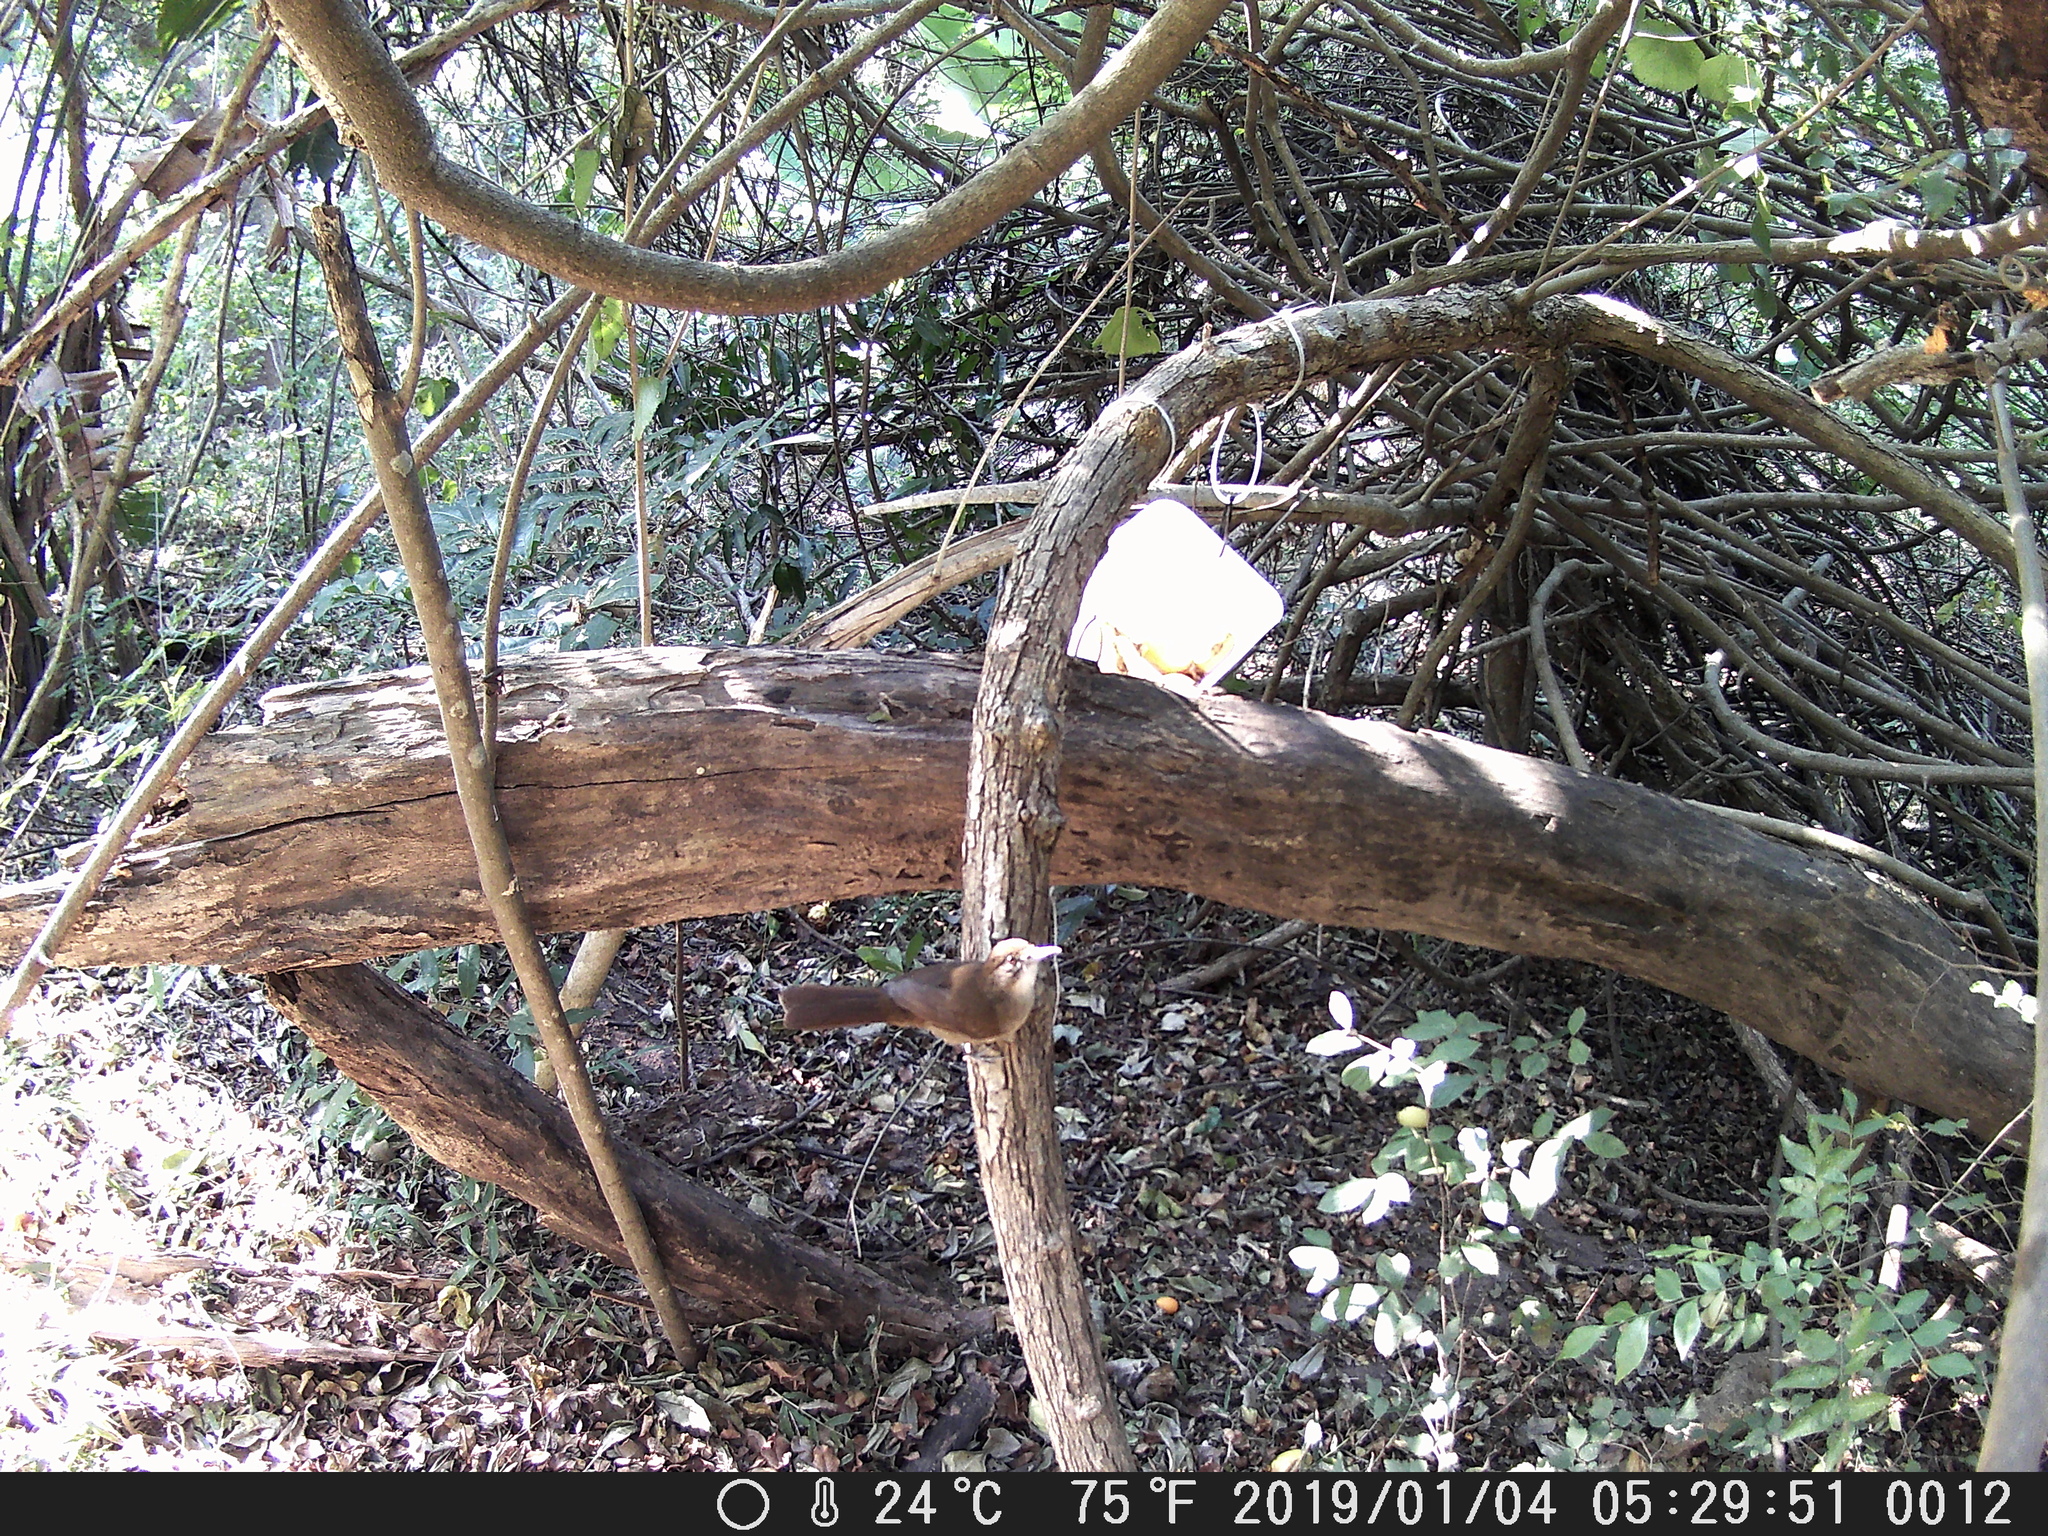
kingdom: Animalia
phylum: Chordata
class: Aves
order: Passeriformes
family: Pycnonotidae
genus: Phyllastrephus
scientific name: Phyllastrephus terrestris
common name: Terrestrial brownbul
